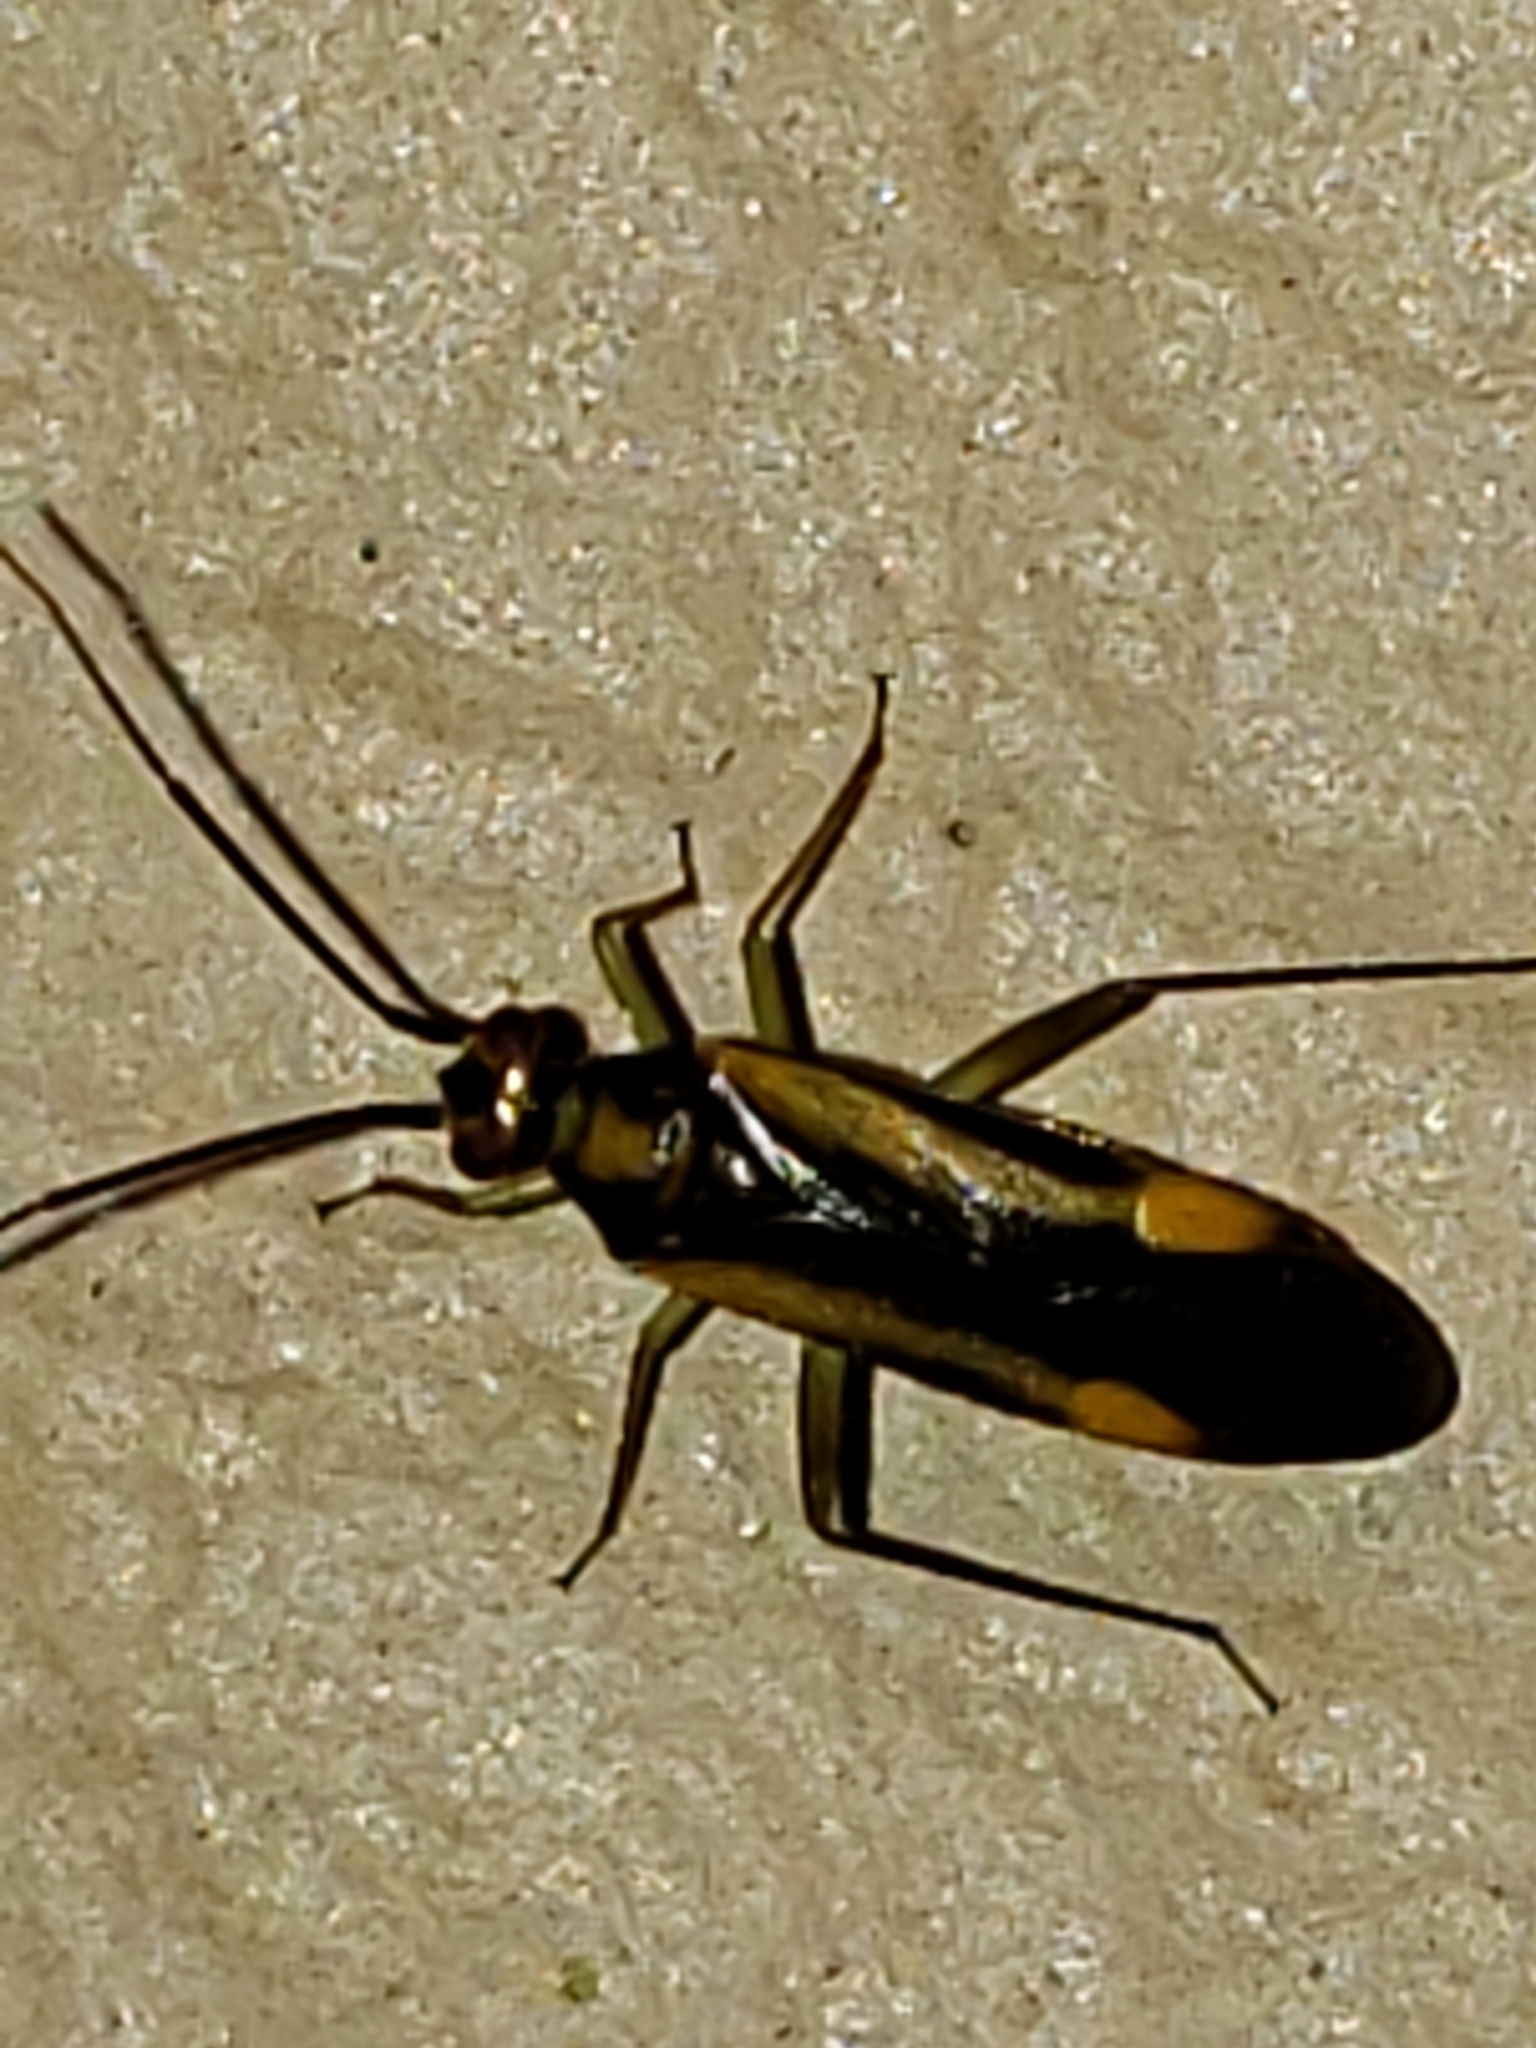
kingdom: Animalia
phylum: Arthropoda
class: Insecta
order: Hemiptera
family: Miridae
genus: Orthotylus
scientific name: Orthotylus submarginatus
